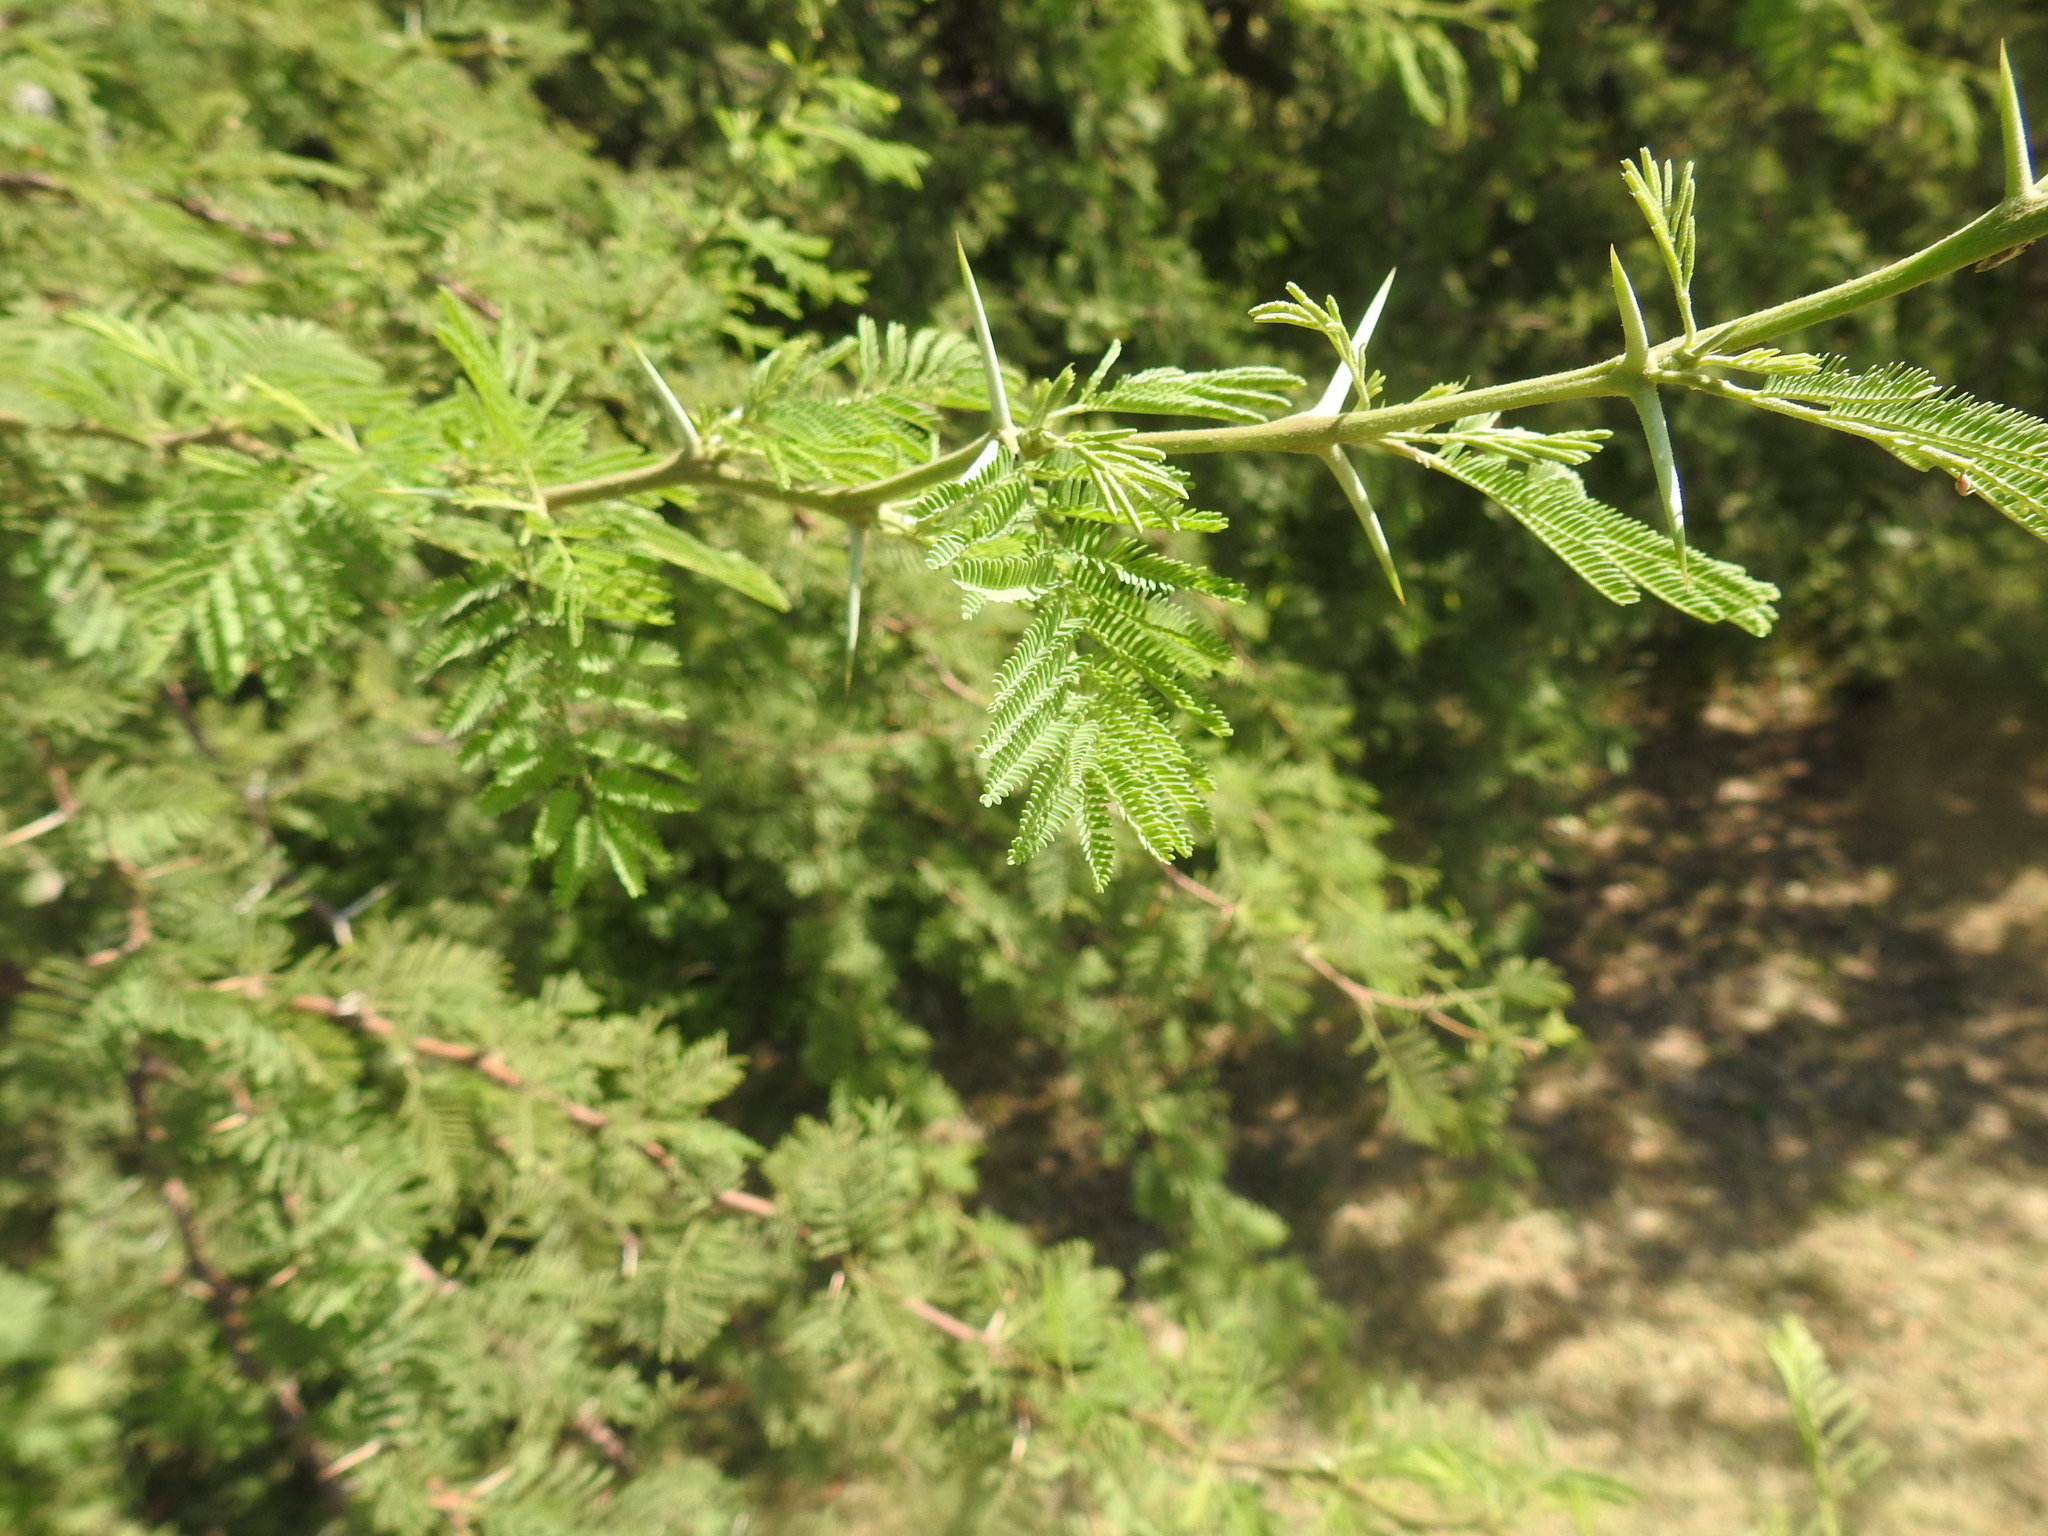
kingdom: Plantae
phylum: Tracheophyta
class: Magnoliopsida
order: Fabales
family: Fabaceae
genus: Vachellia
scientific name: Vachellia caven
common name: Roman cassie
